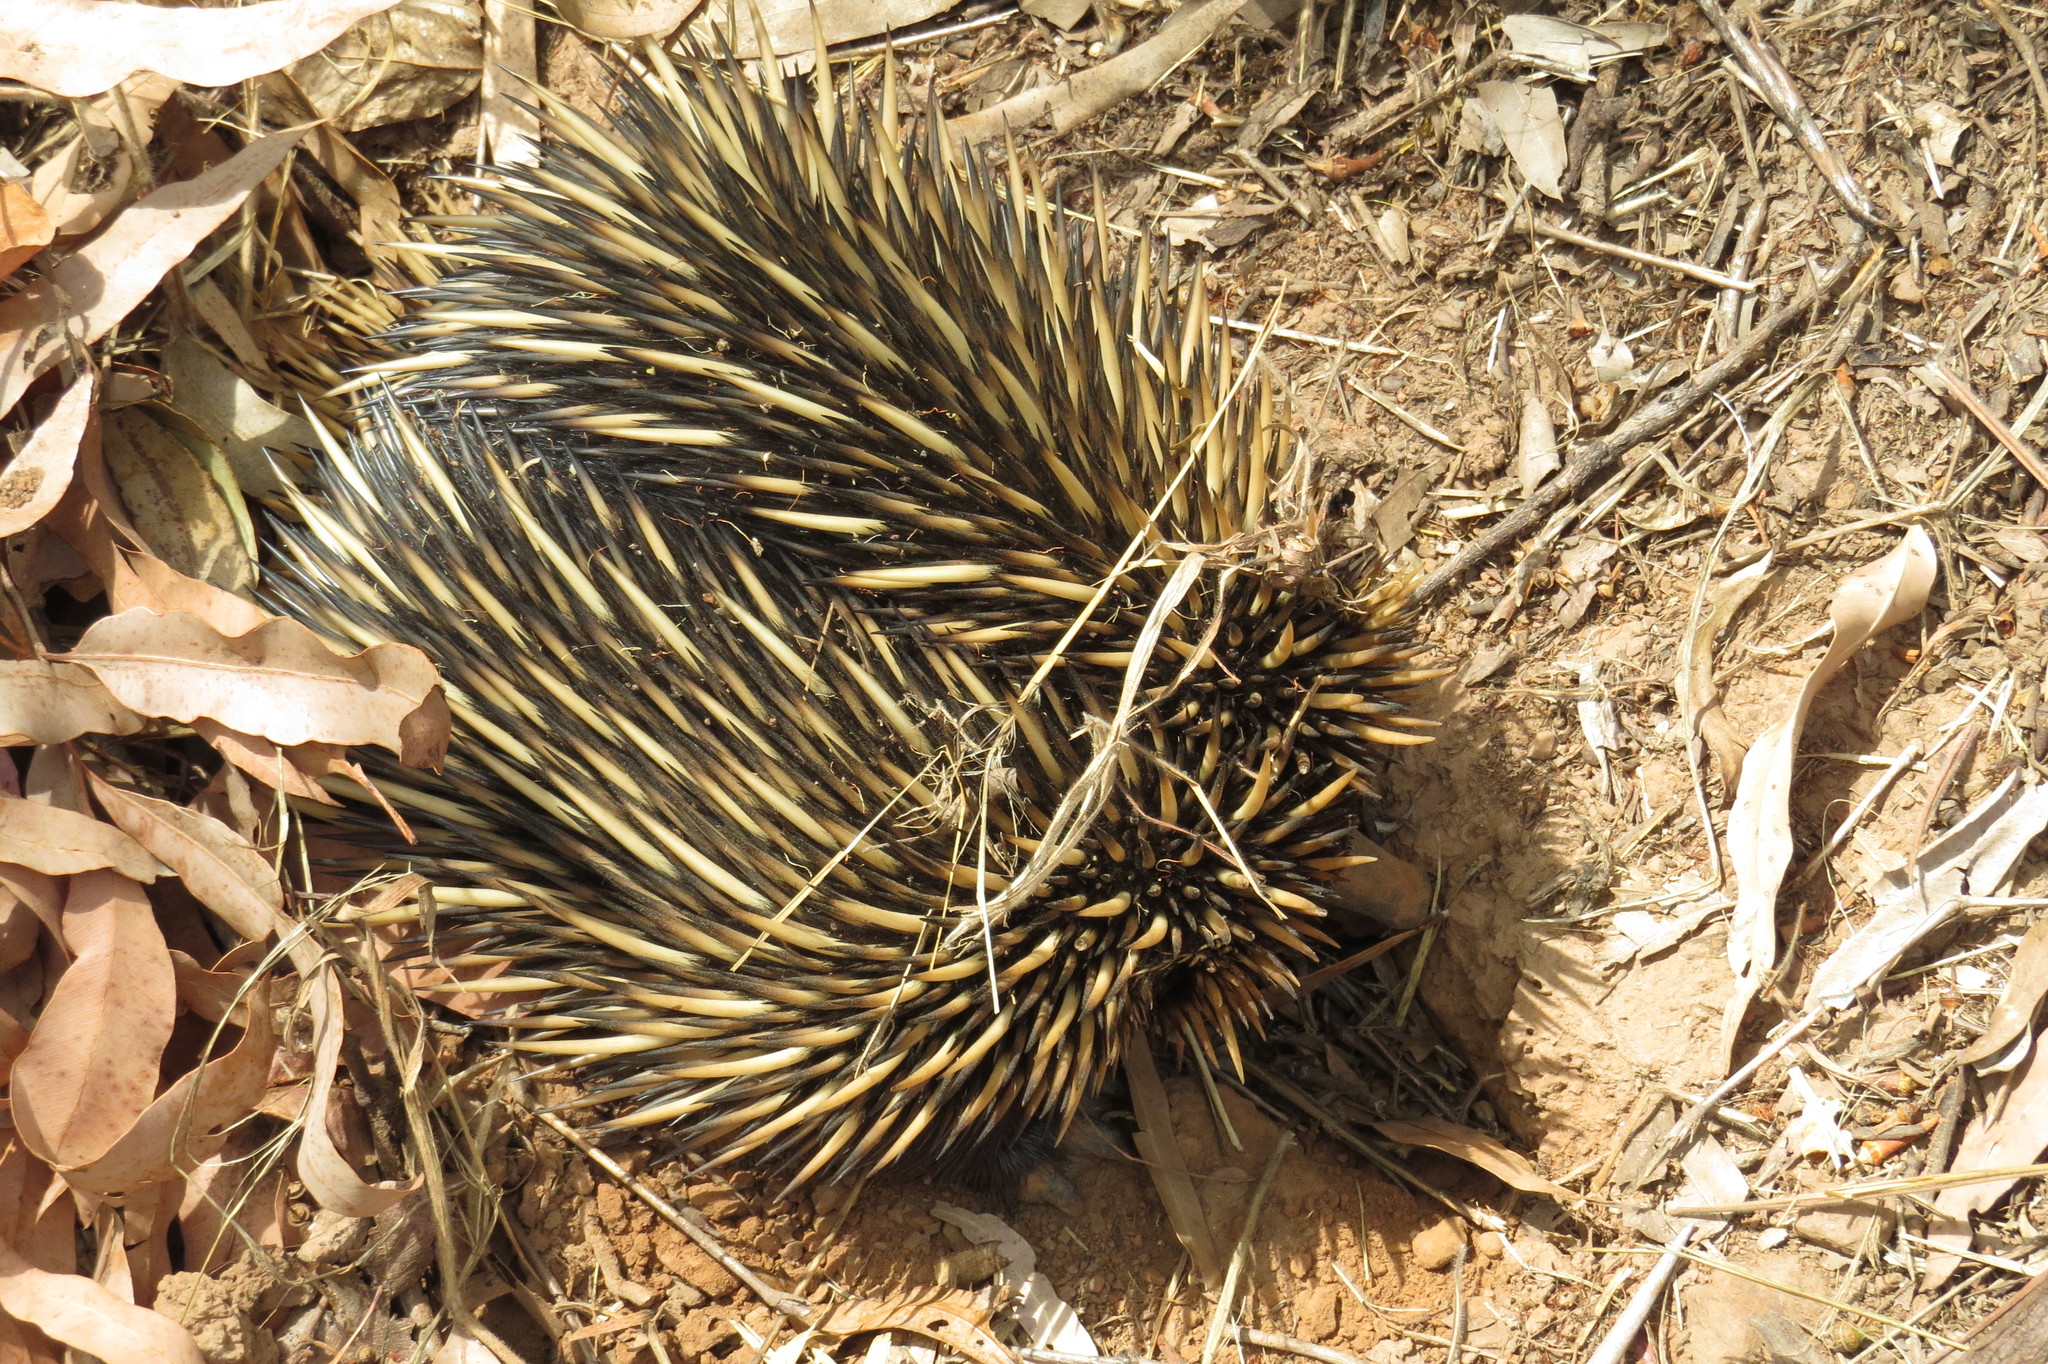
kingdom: Animalia
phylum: Chordata
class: Mammalia
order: Monotremata
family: Tachyglossidae
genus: Tachyglossus
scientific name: Tachyglossus aculeatus
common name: Short-beaked echidna
